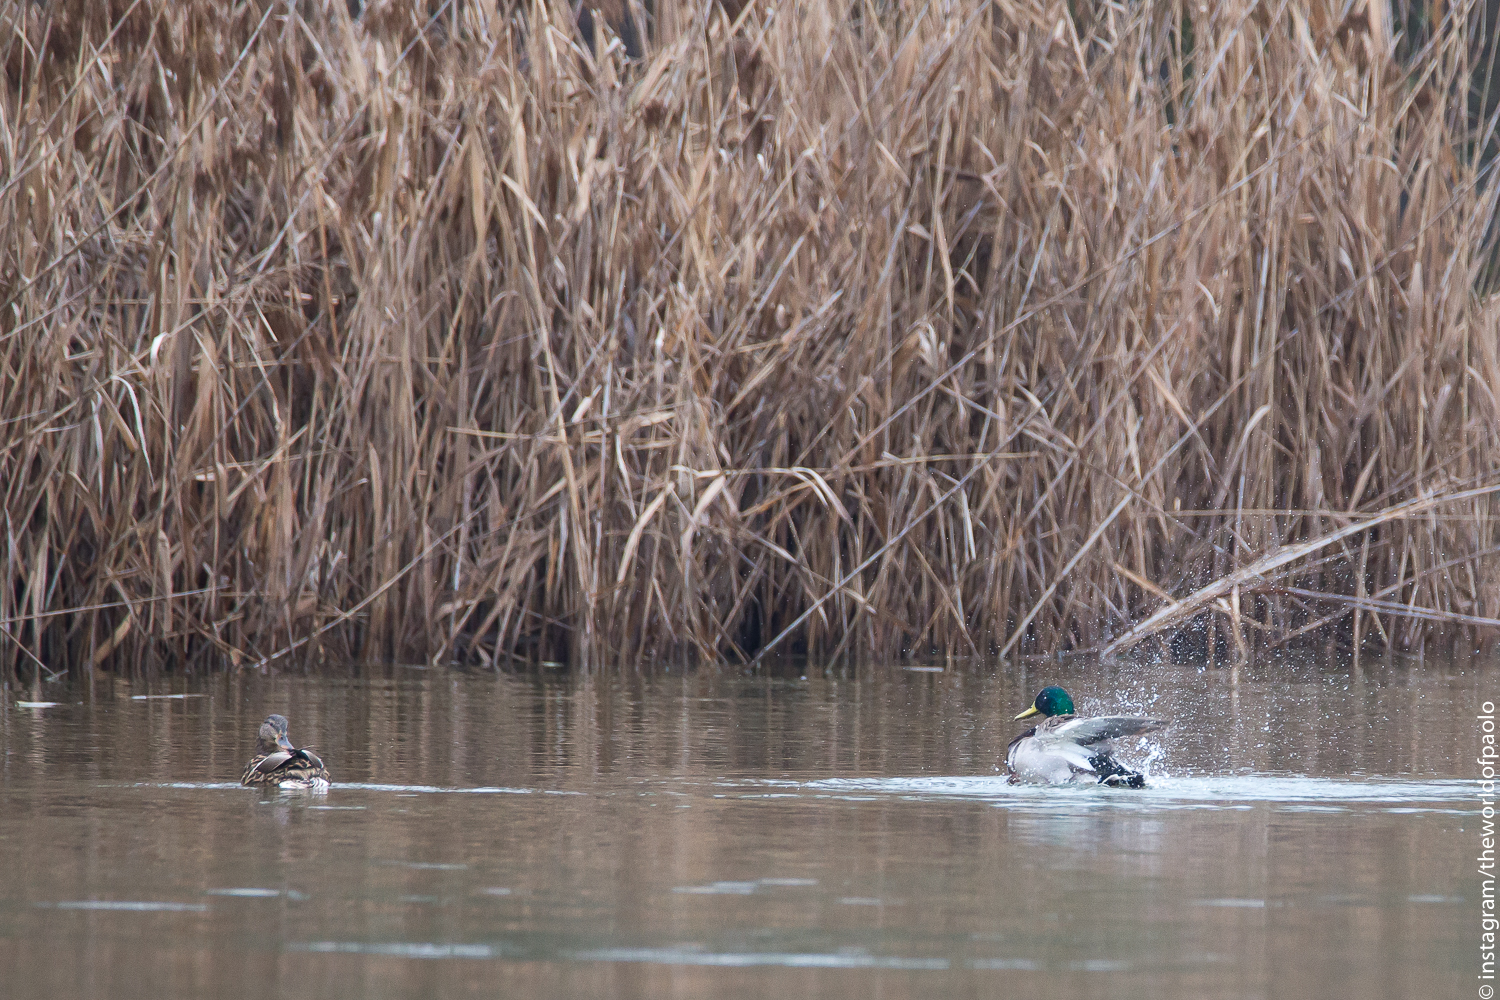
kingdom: Animalia
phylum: Chordata
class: Aves
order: Anseriformes
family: Anatidae
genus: Anas
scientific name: Anas platyrhynchos
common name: Mallard
